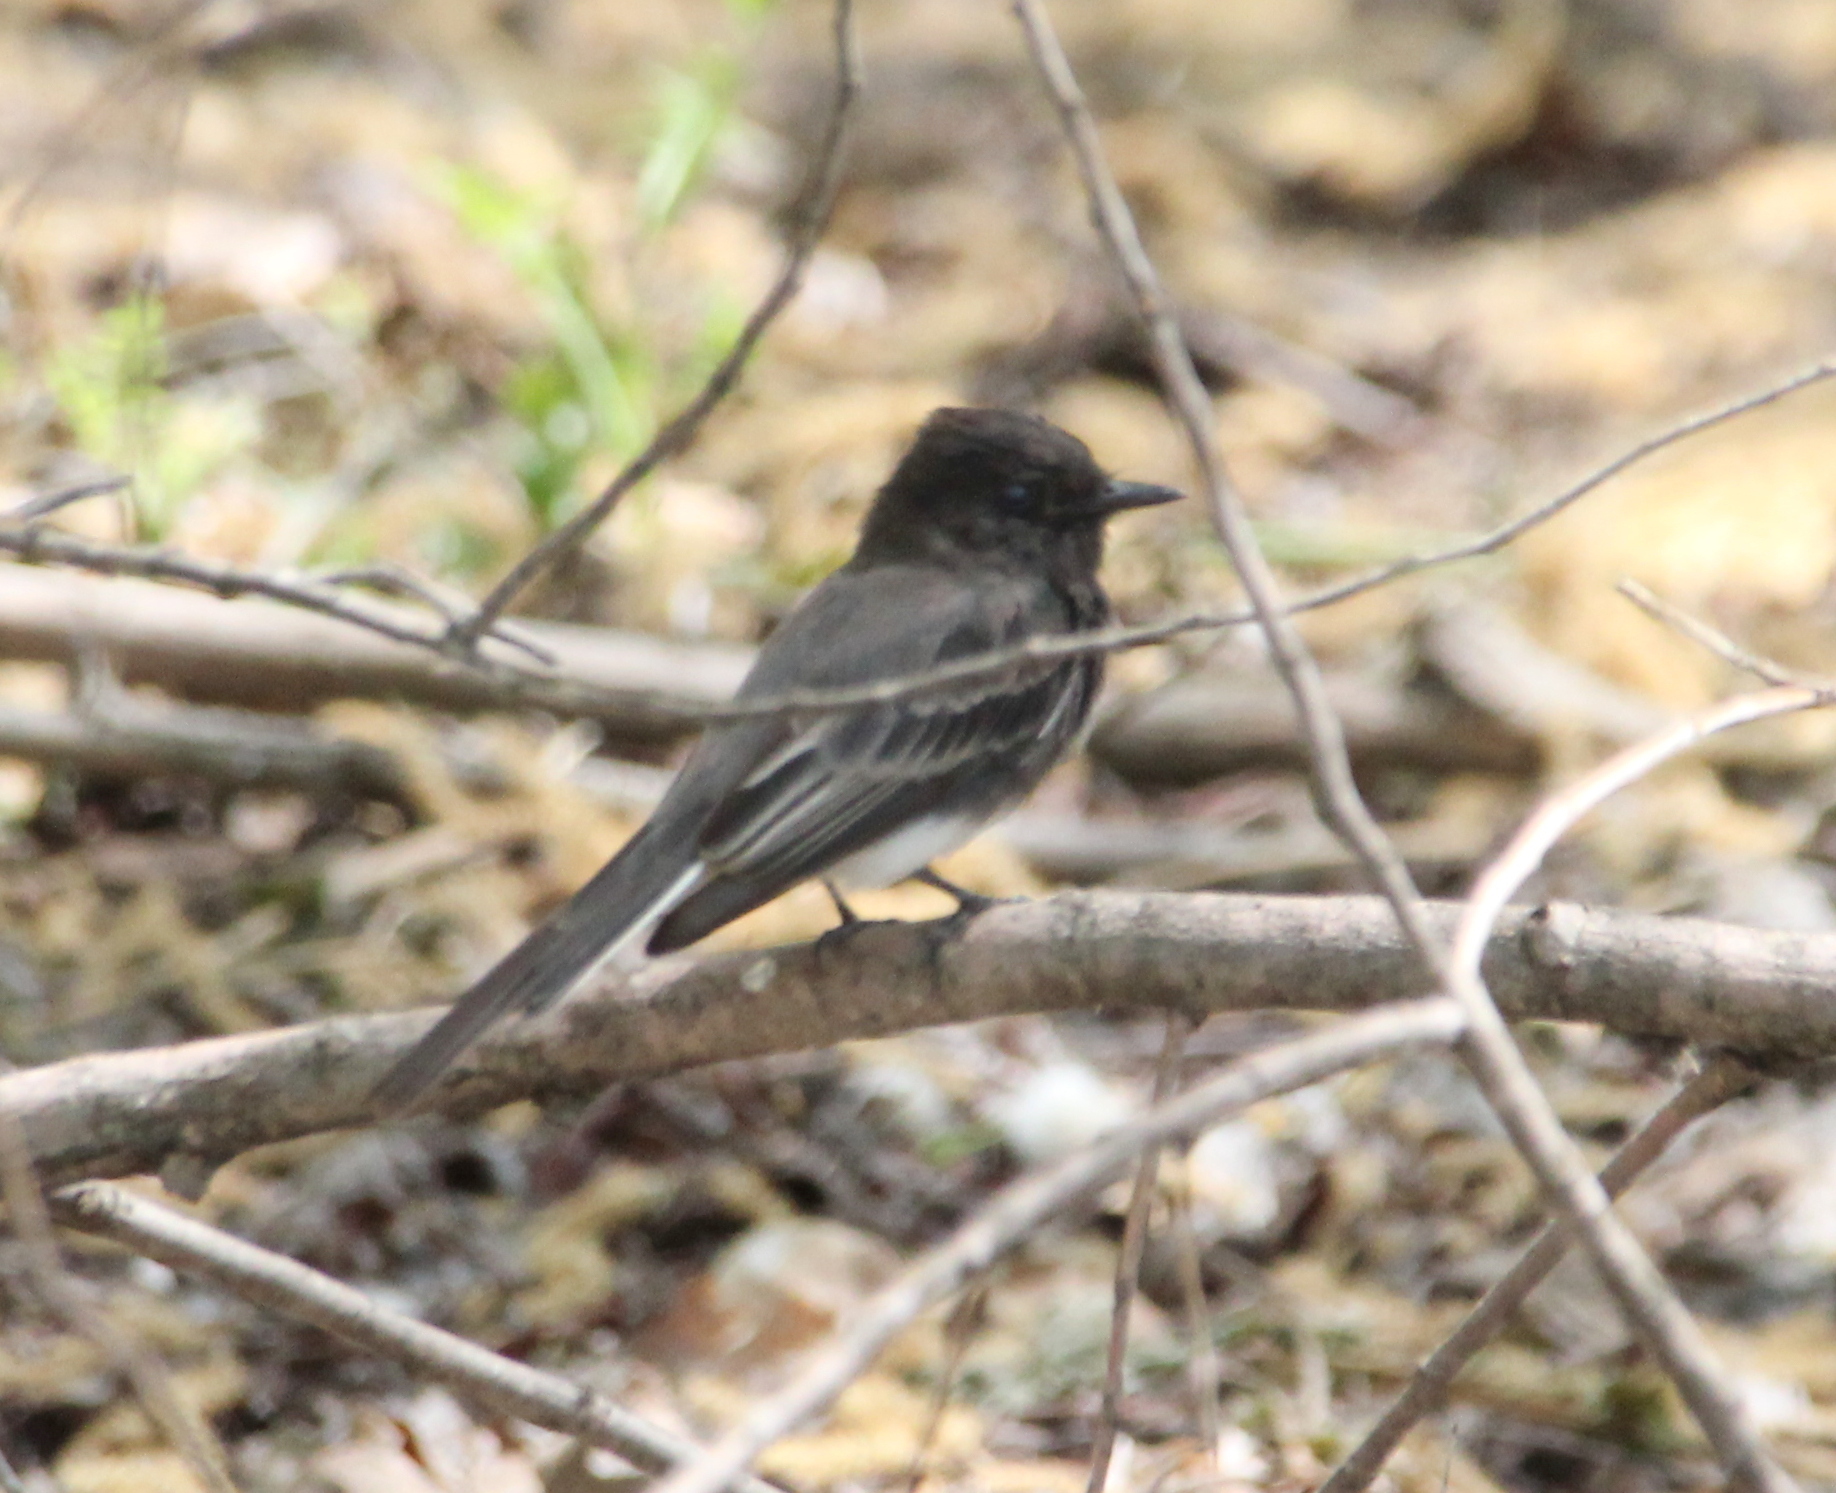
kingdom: Animalia
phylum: Chordata
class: Aves
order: Passeriformes
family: Tyrannidae
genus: Sayornis
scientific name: Sayornis nigricans
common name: Black phoebe
